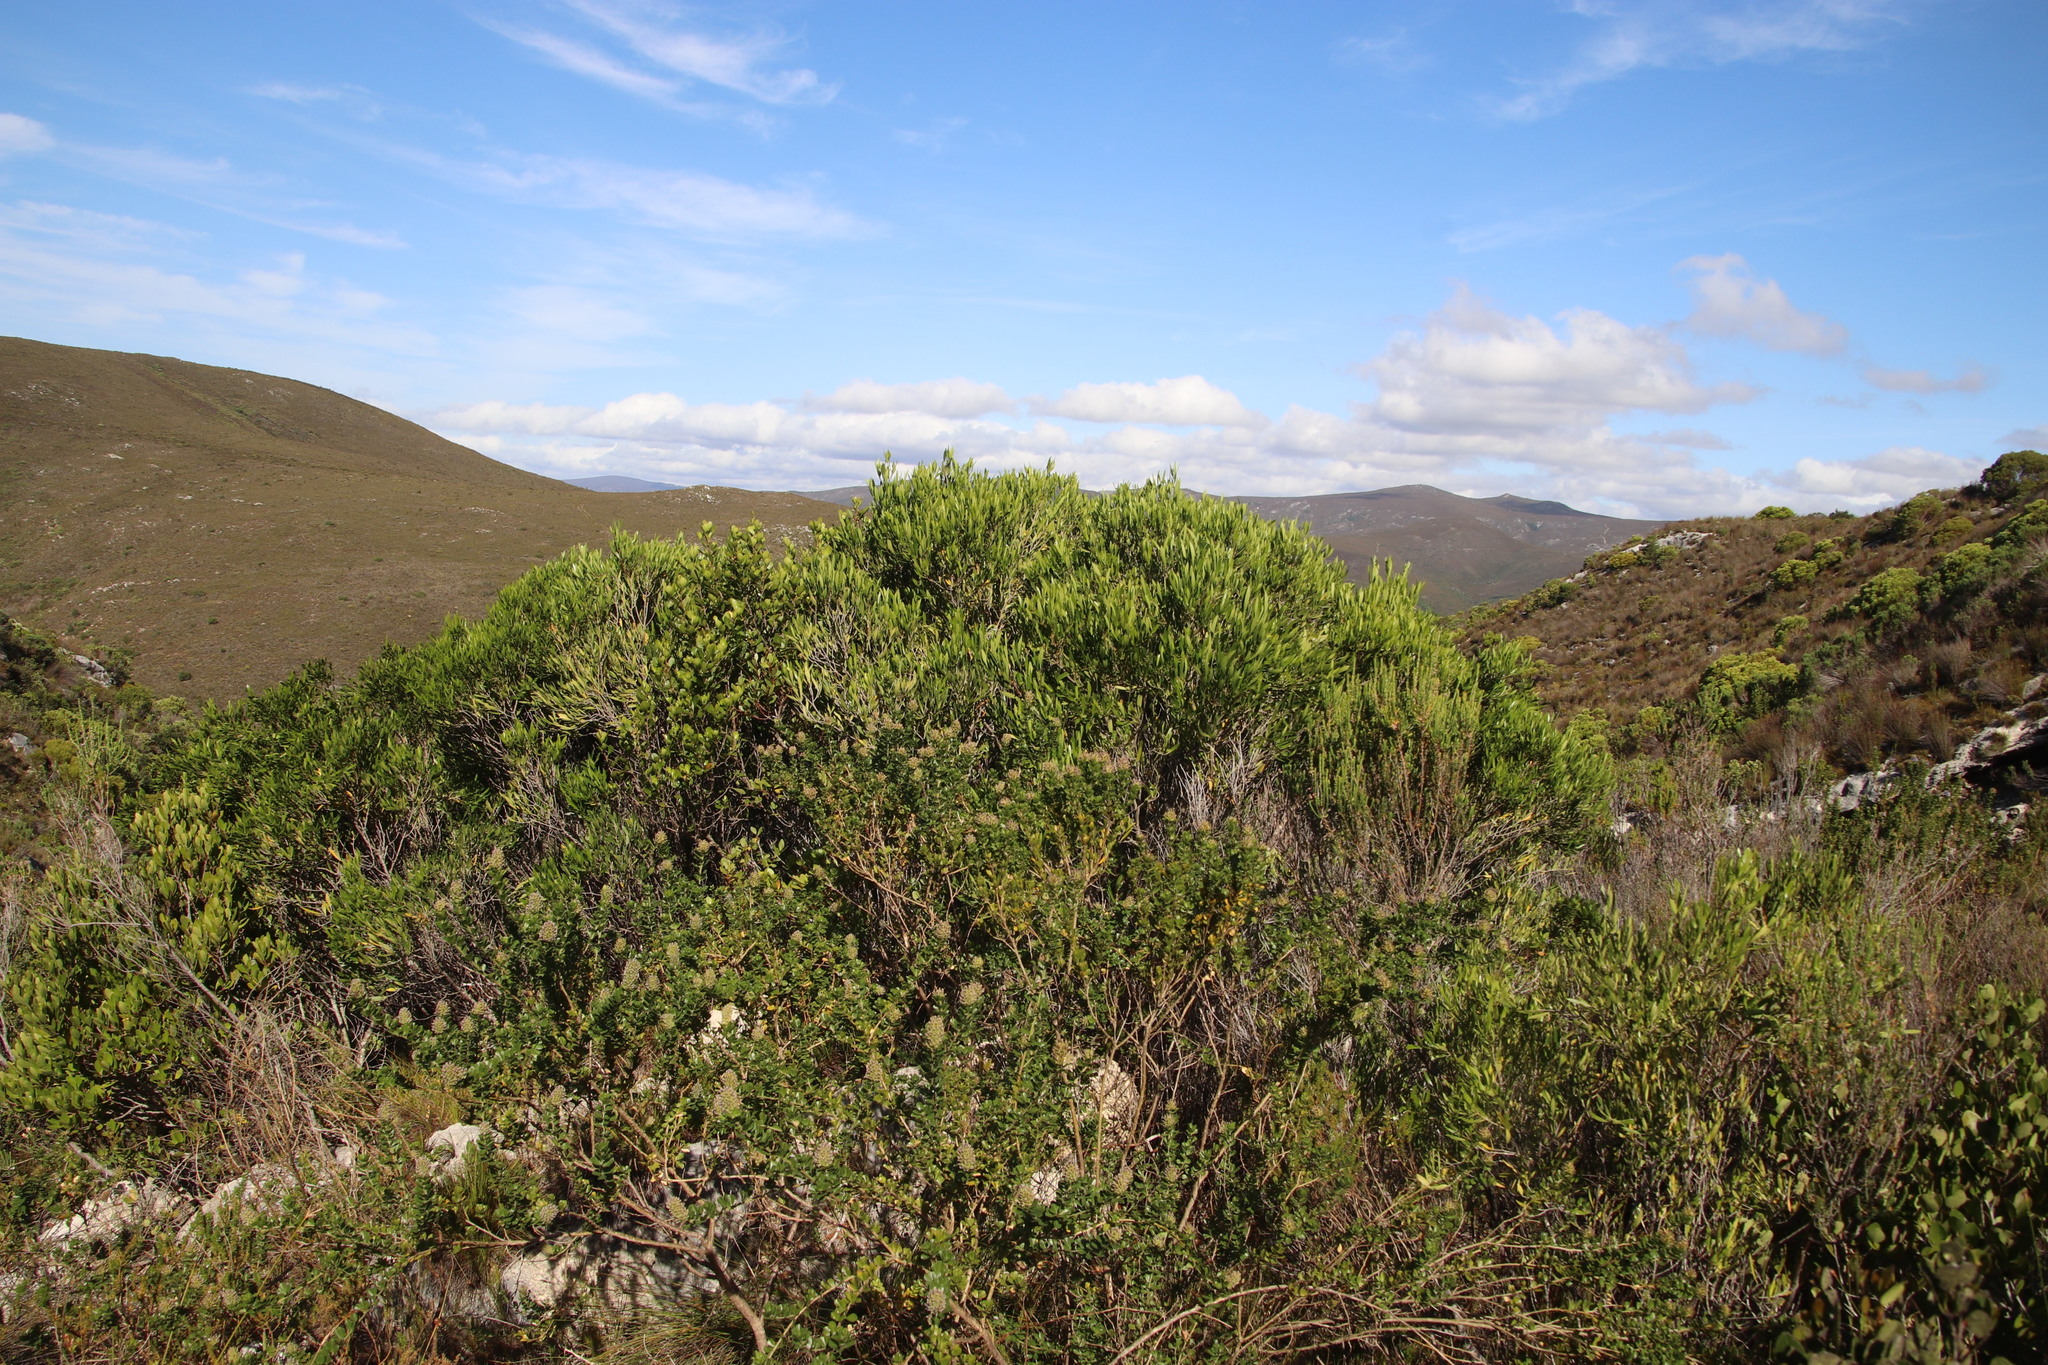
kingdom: Plantae
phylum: Tracheophyta
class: Magnoliopsida
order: Lamiales
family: Oleaceae
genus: Olea
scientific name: Olea exasperata
